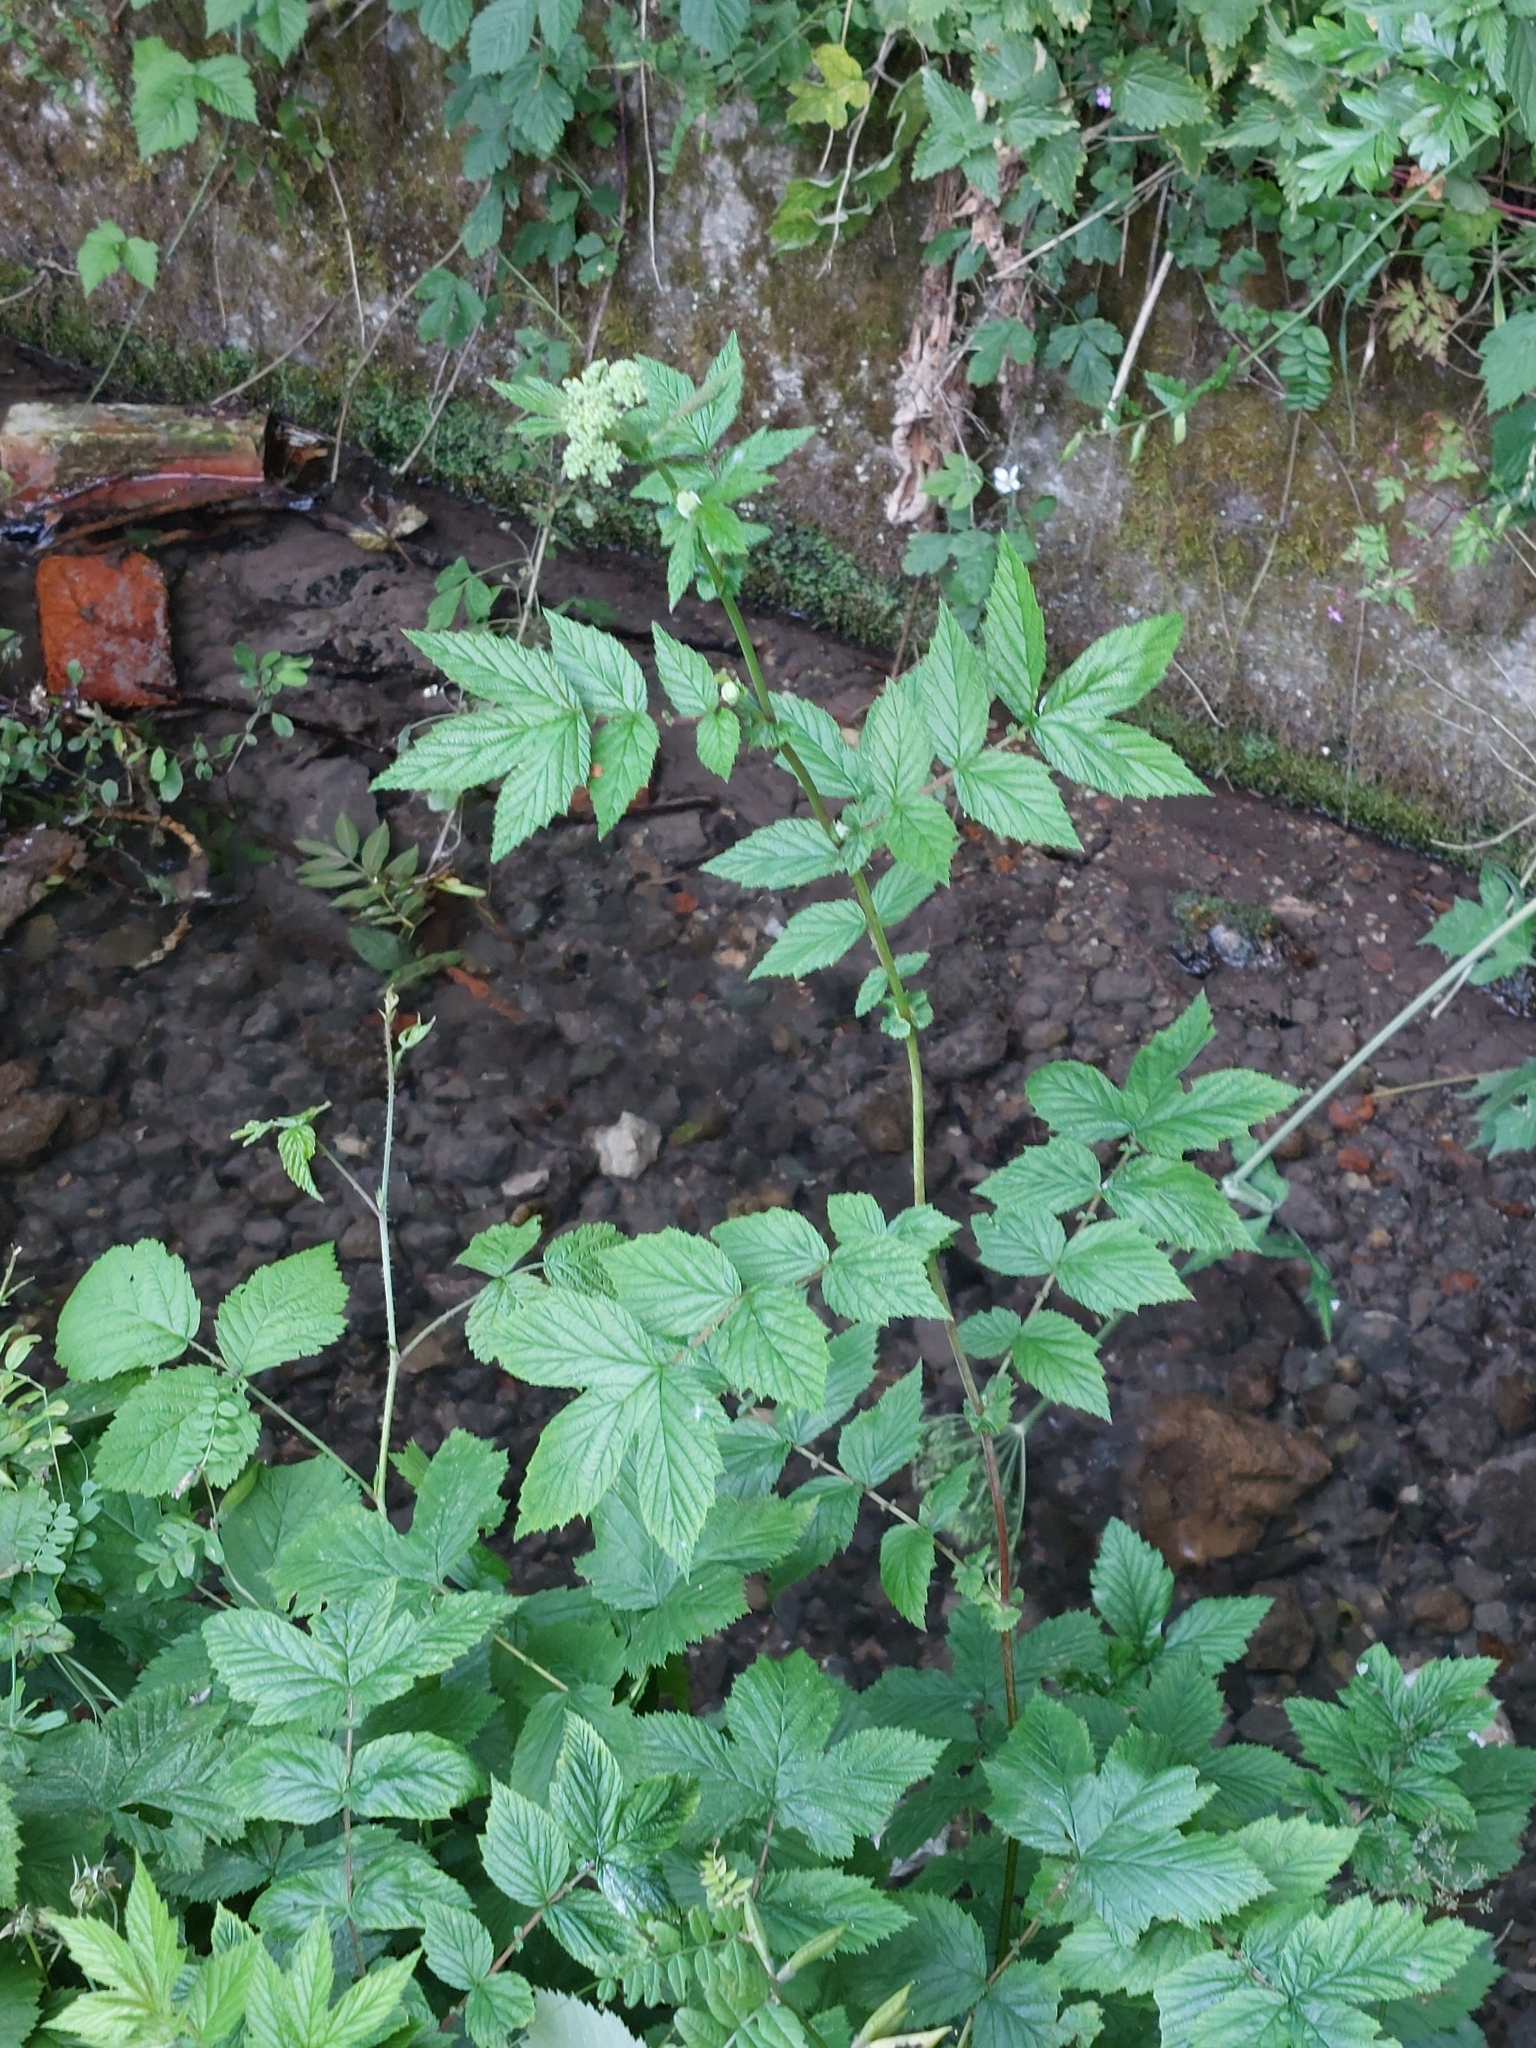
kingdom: Plantae
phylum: Tracheophyta
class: Magnoliopsida
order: Rosales
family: Rosaceae
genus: Filipendula
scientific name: Filipendula ulmaria
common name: Meadowsweet
